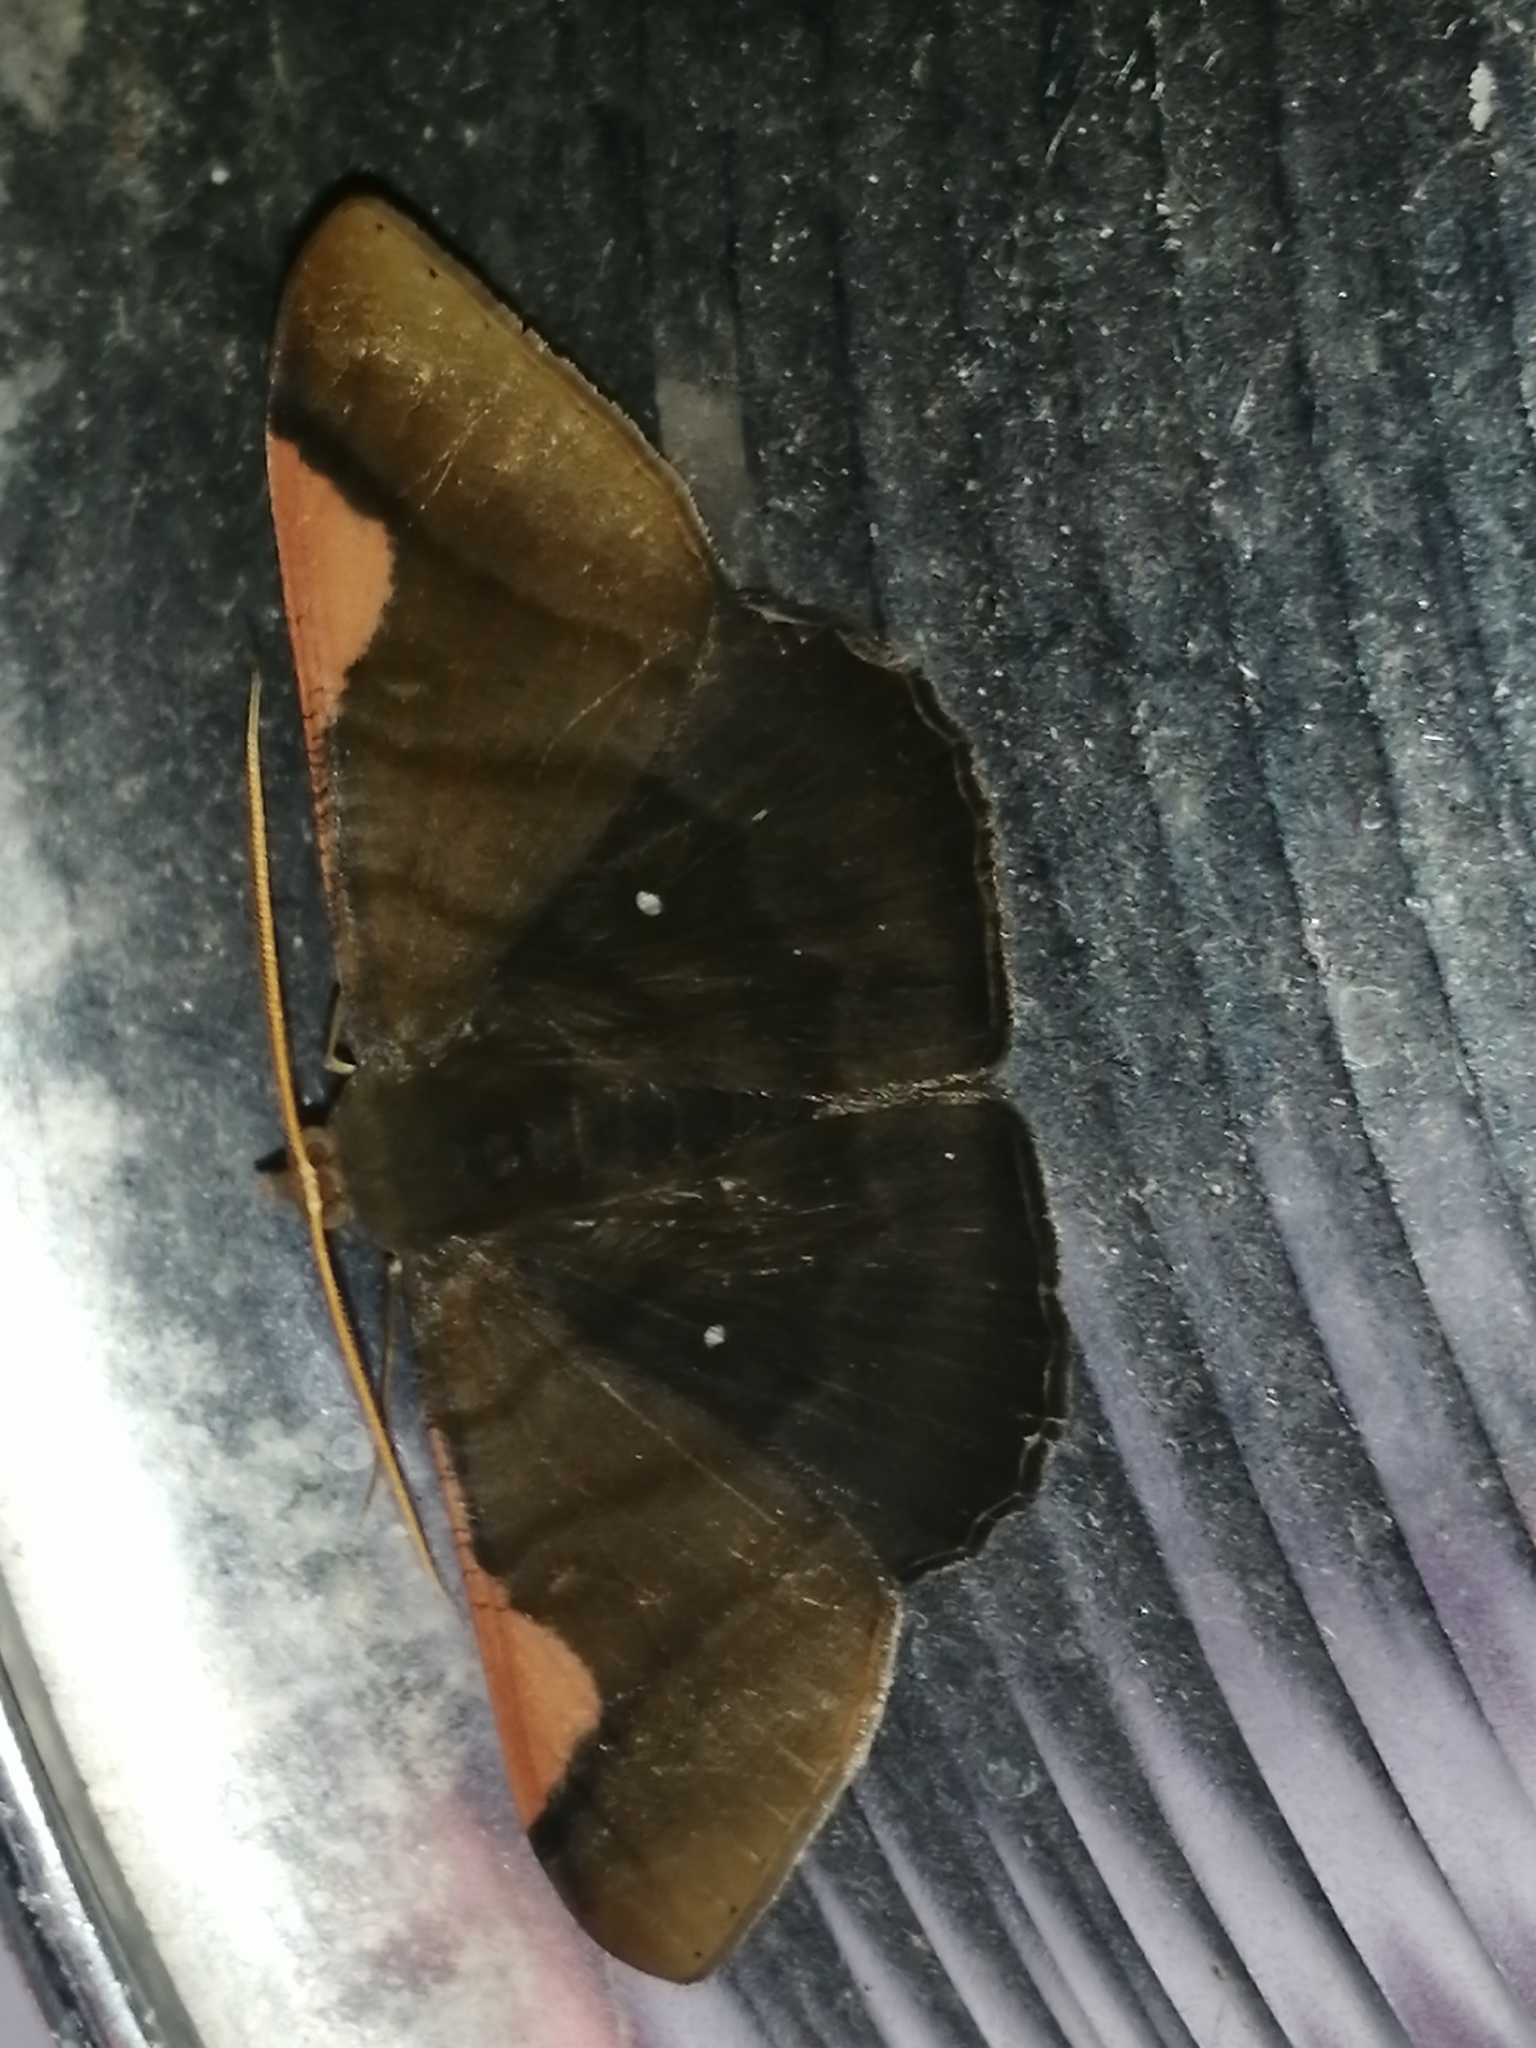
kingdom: Animalia
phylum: Arthropoda
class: Insecta
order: Lepidoptera
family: Geometridae
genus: Sphacelodes
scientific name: Sphacelodes vulneraria
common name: Looper moth
